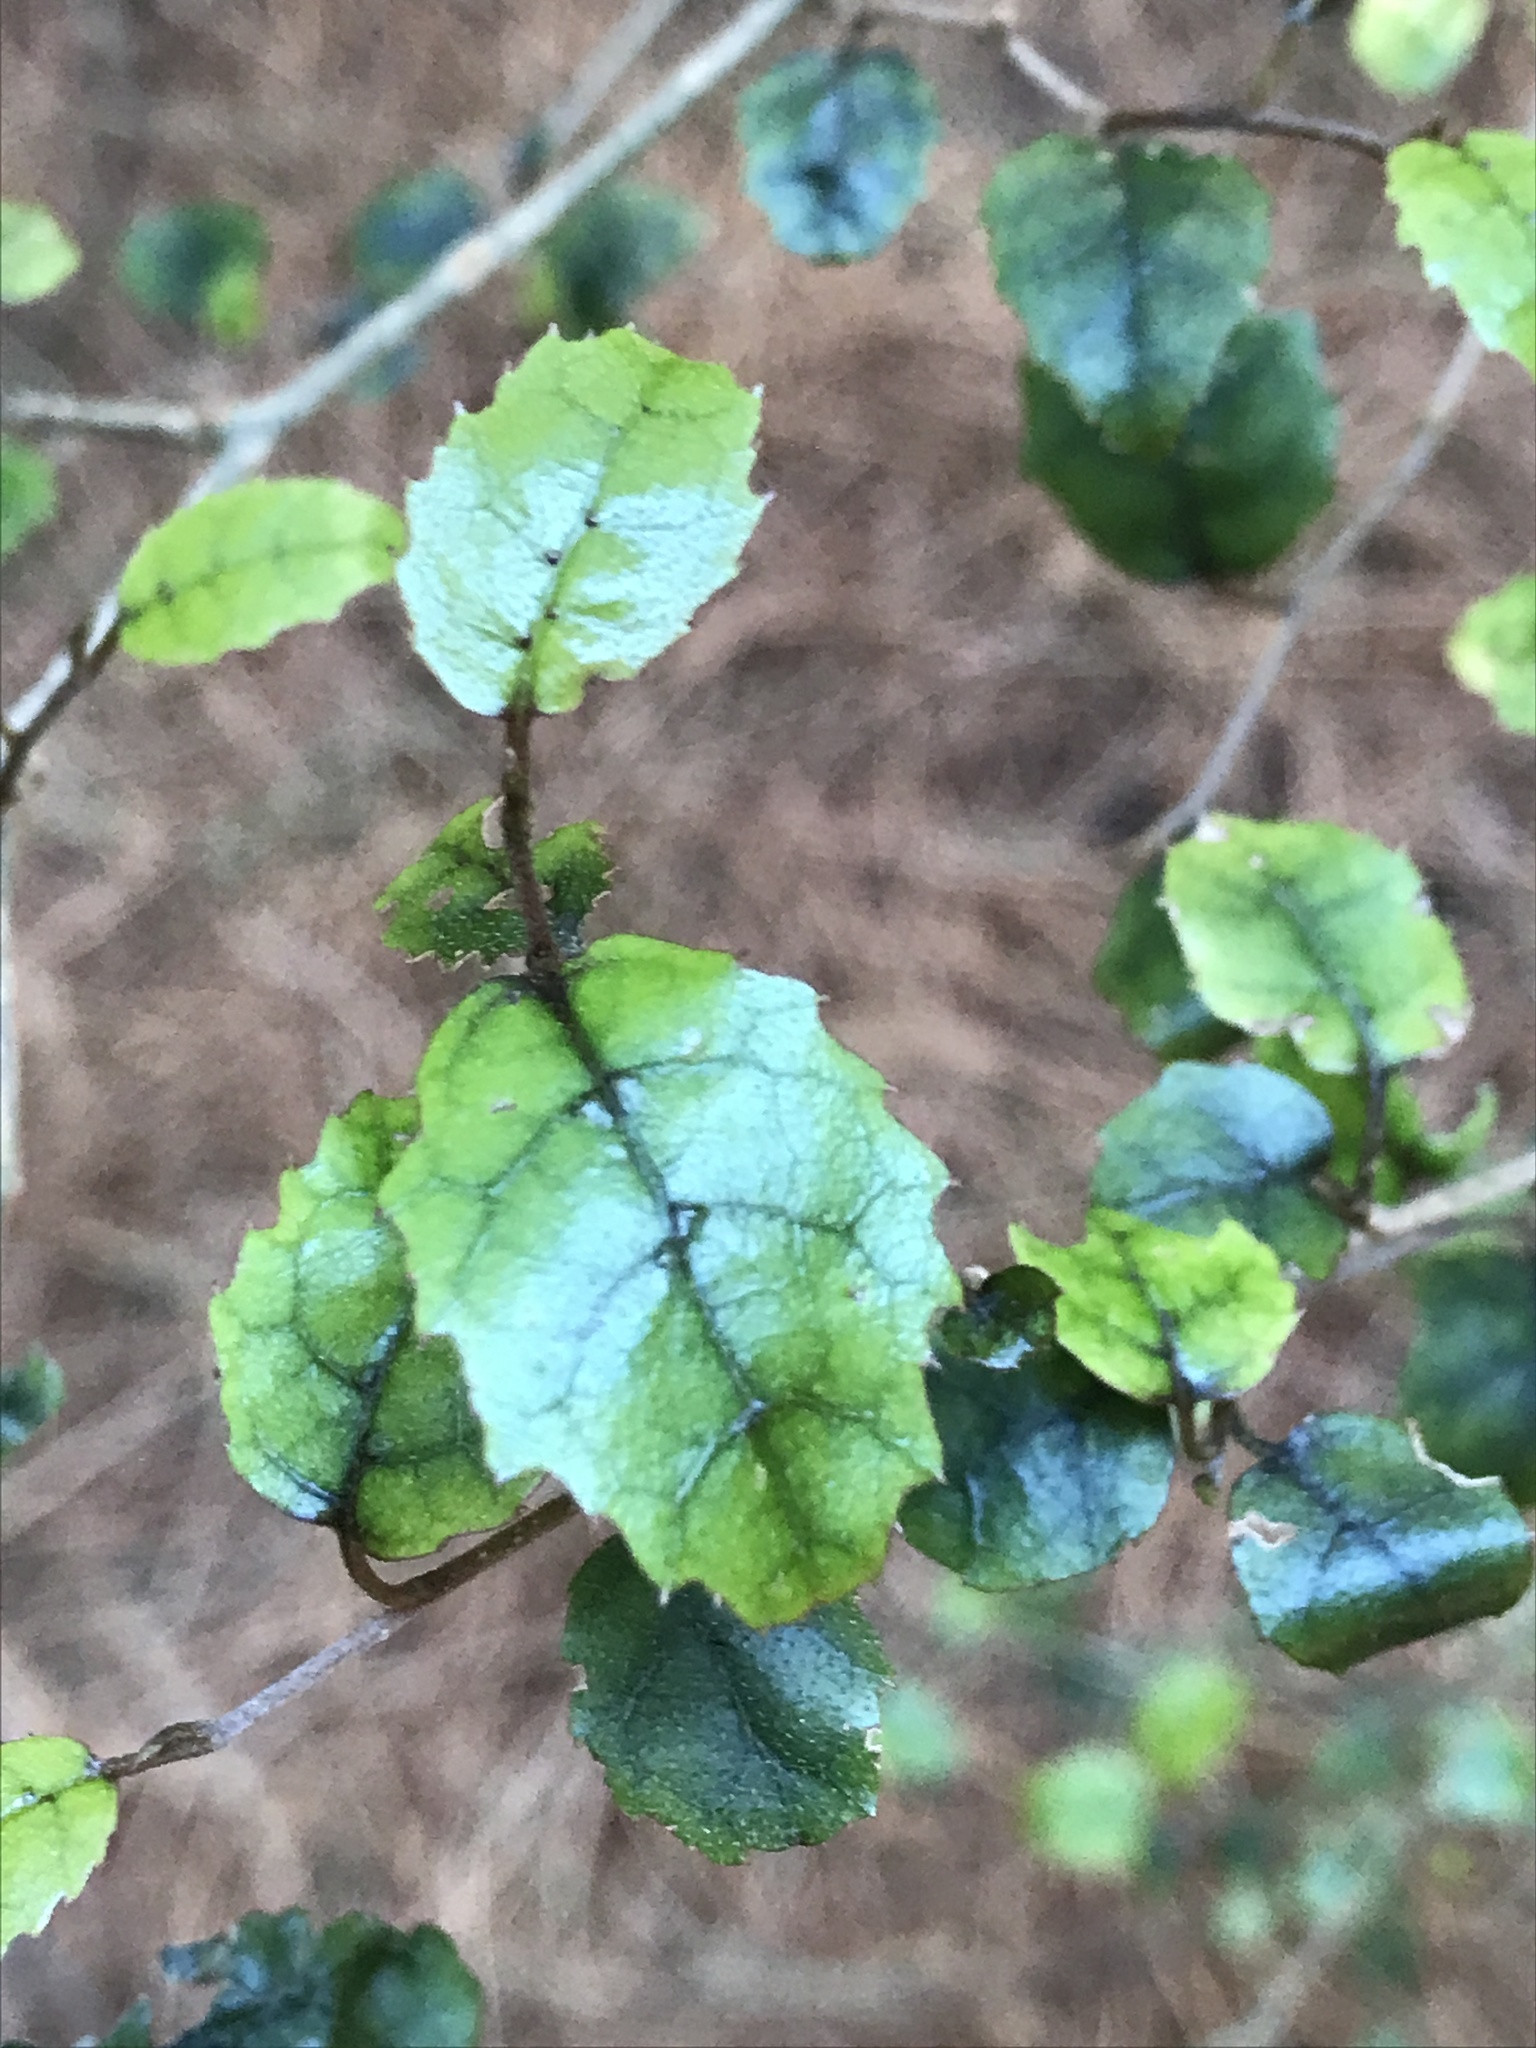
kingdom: Plantae
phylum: Tracheophyta
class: Magnoliopsida
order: Asterales
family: Rousseaceae
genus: Carpodetus
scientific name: Carpodetus serratus
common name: White mapau
